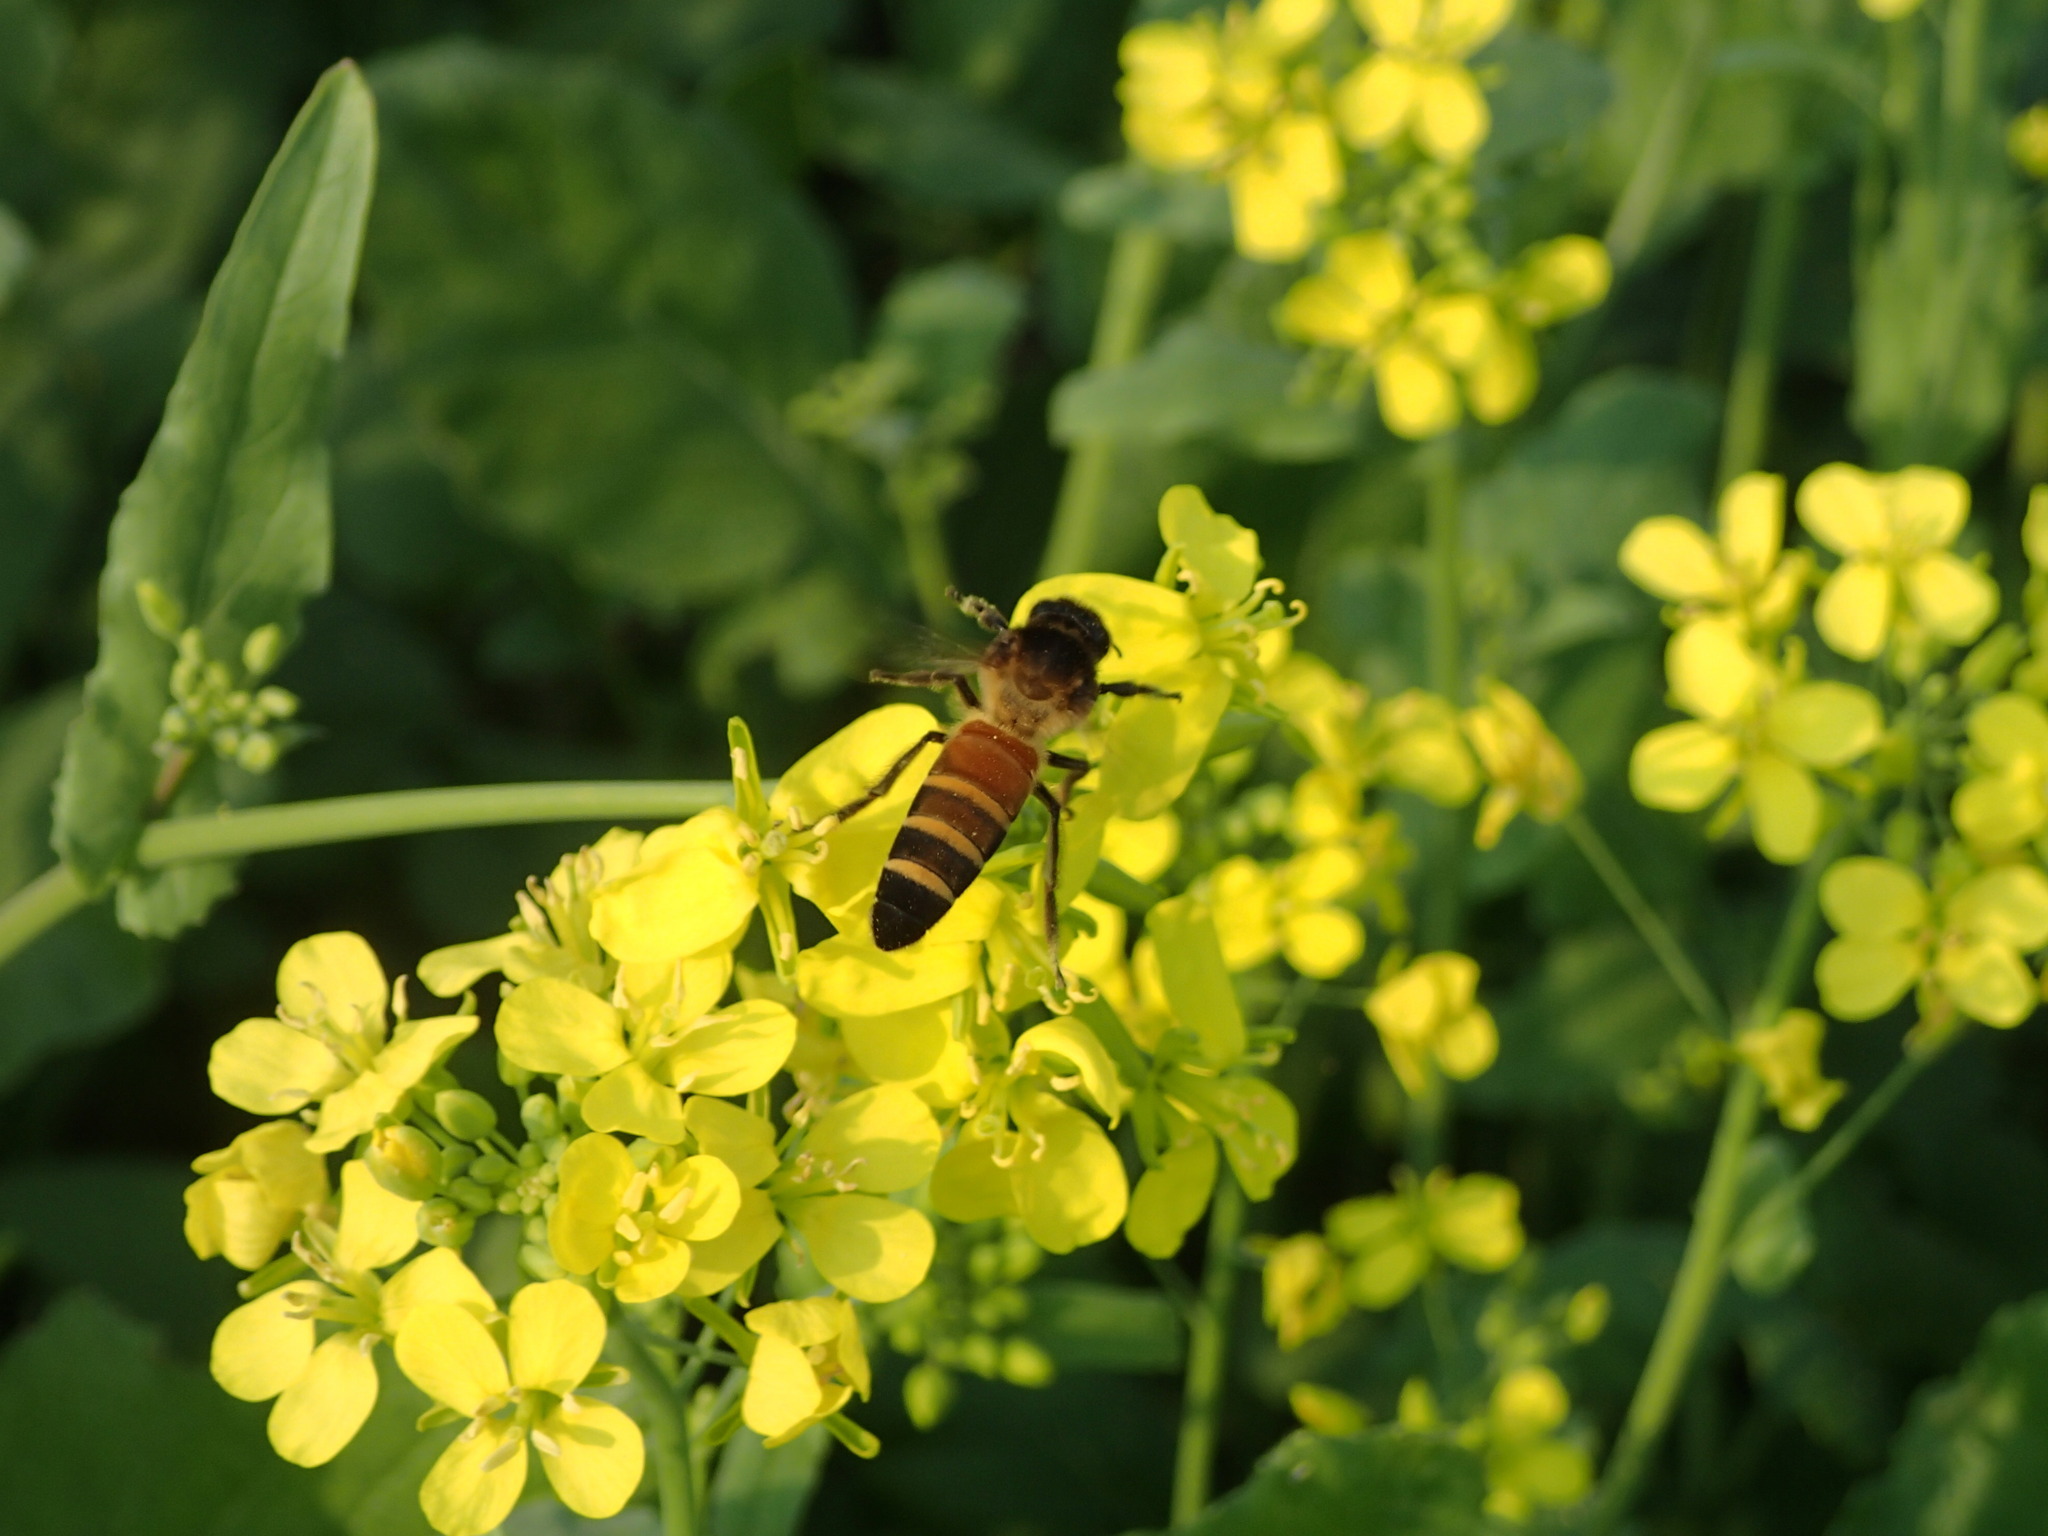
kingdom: Animalia
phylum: Arthropoda
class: Insecta
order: Hymenoptera
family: Apidae
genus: Apis
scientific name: Apis dorsata
